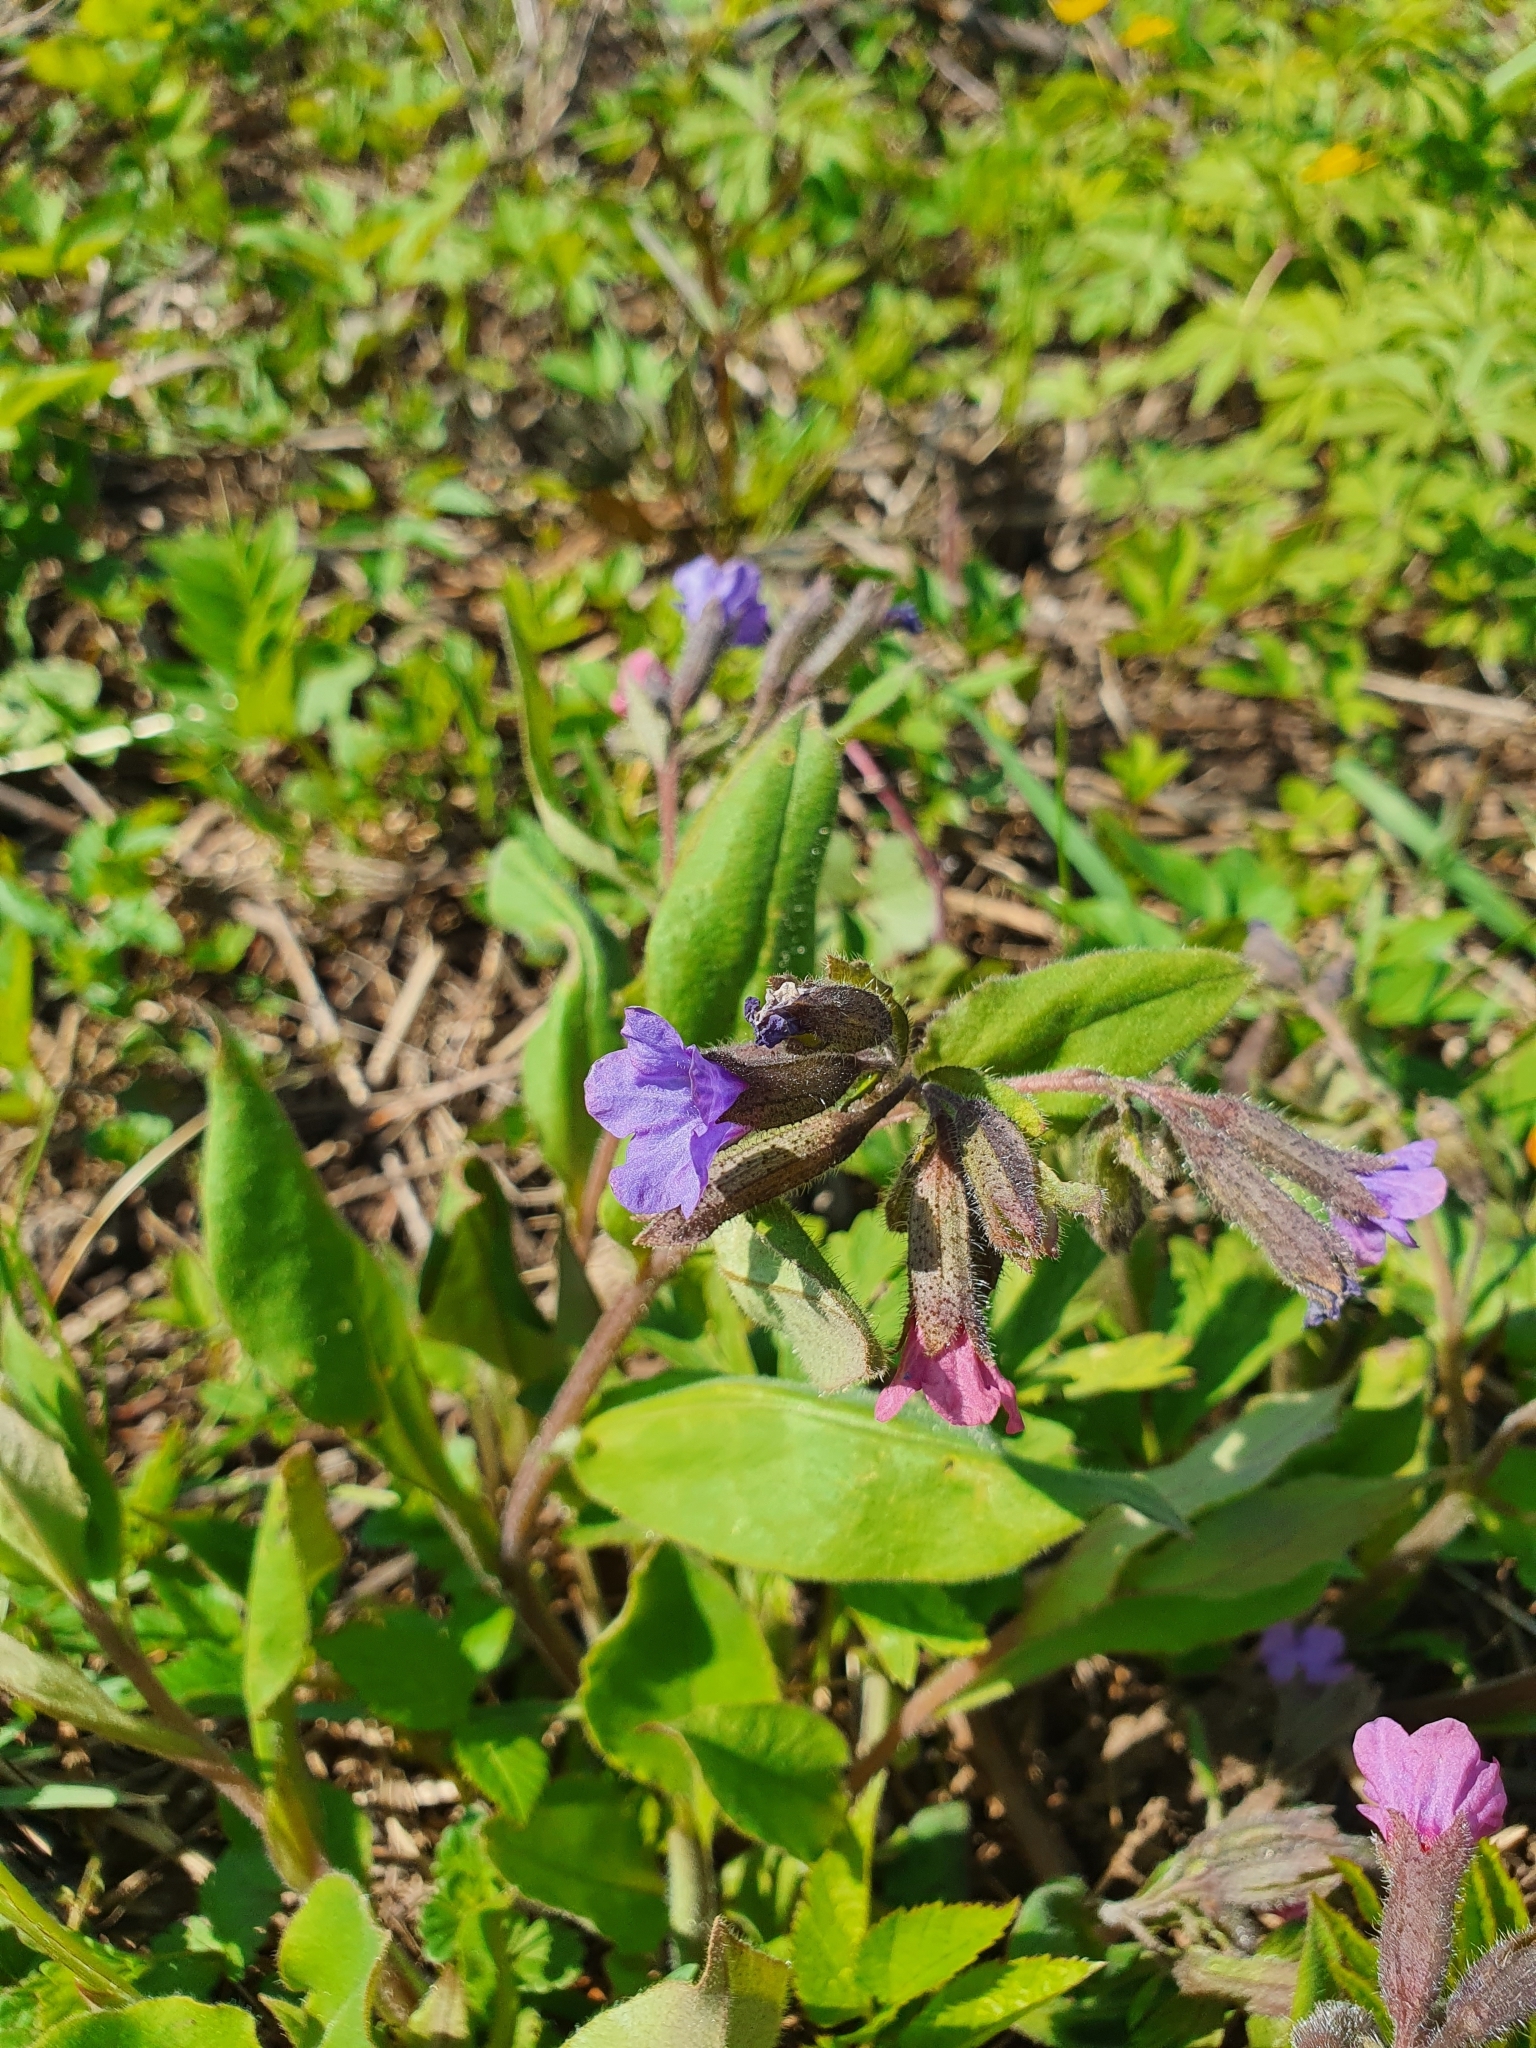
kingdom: Plantae
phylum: Tracheophyta
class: Magnoliopsida
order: Boraginales
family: Boraginaceae
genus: Pulmonaria
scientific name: Pulmonaria obscura
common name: Suffolk lungwort
